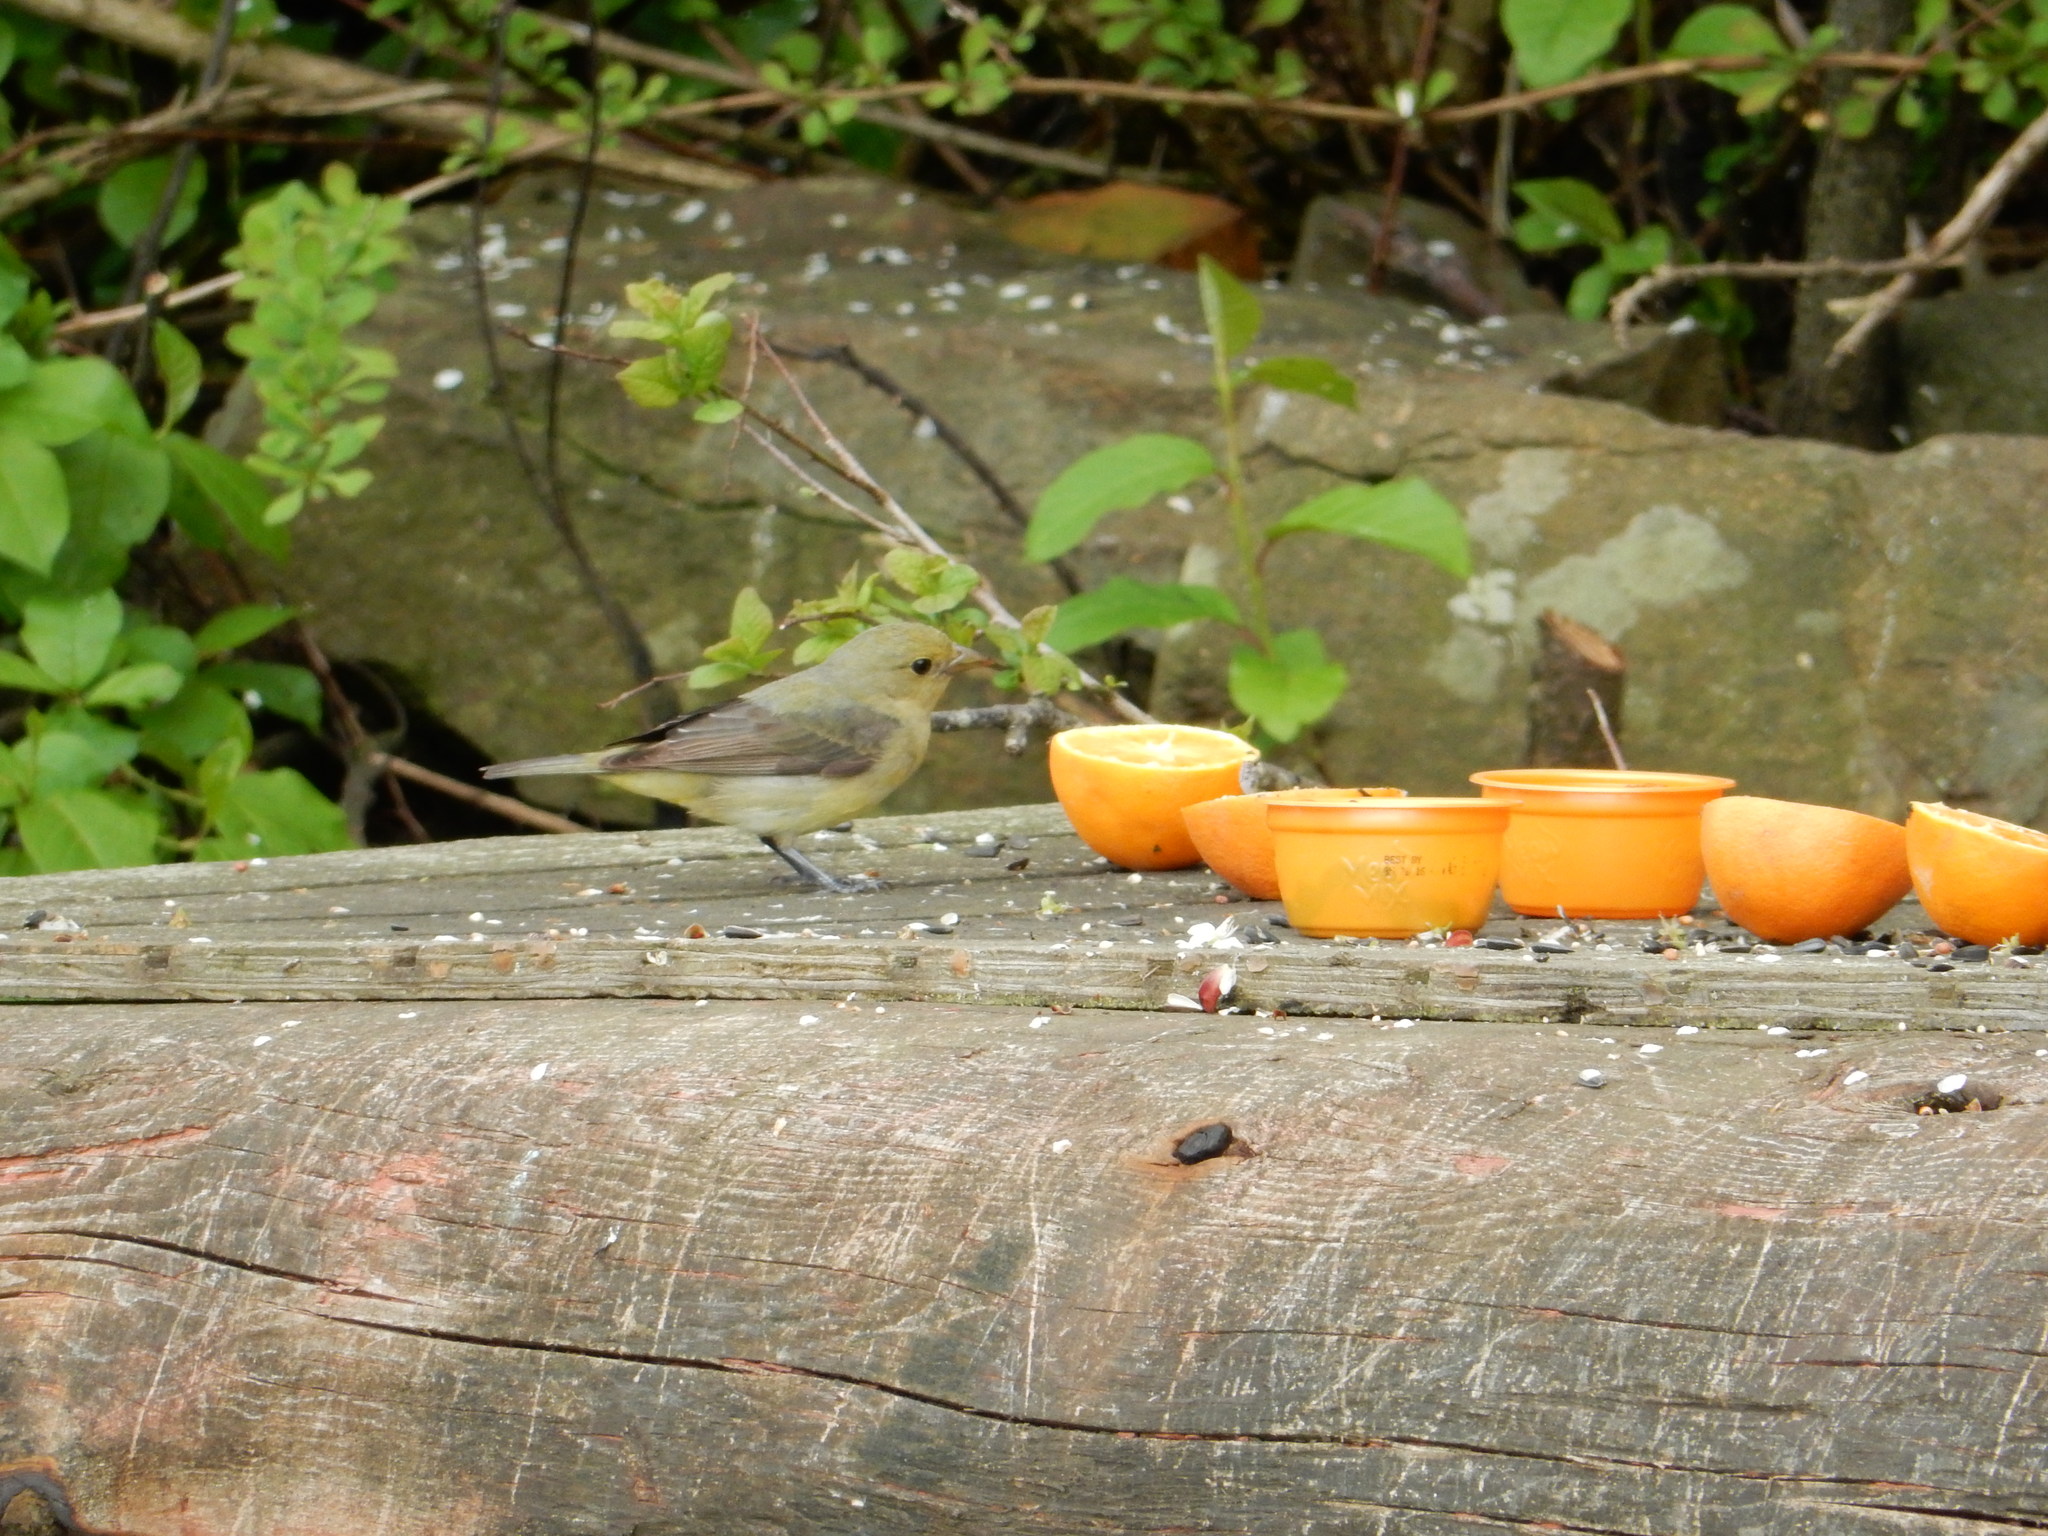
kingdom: Animalia
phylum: Chordata
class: Aves
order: Passeriformes
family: Cardinalidae
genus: Piranga
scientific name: Piranga olivacea
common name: Scarlet tanager
